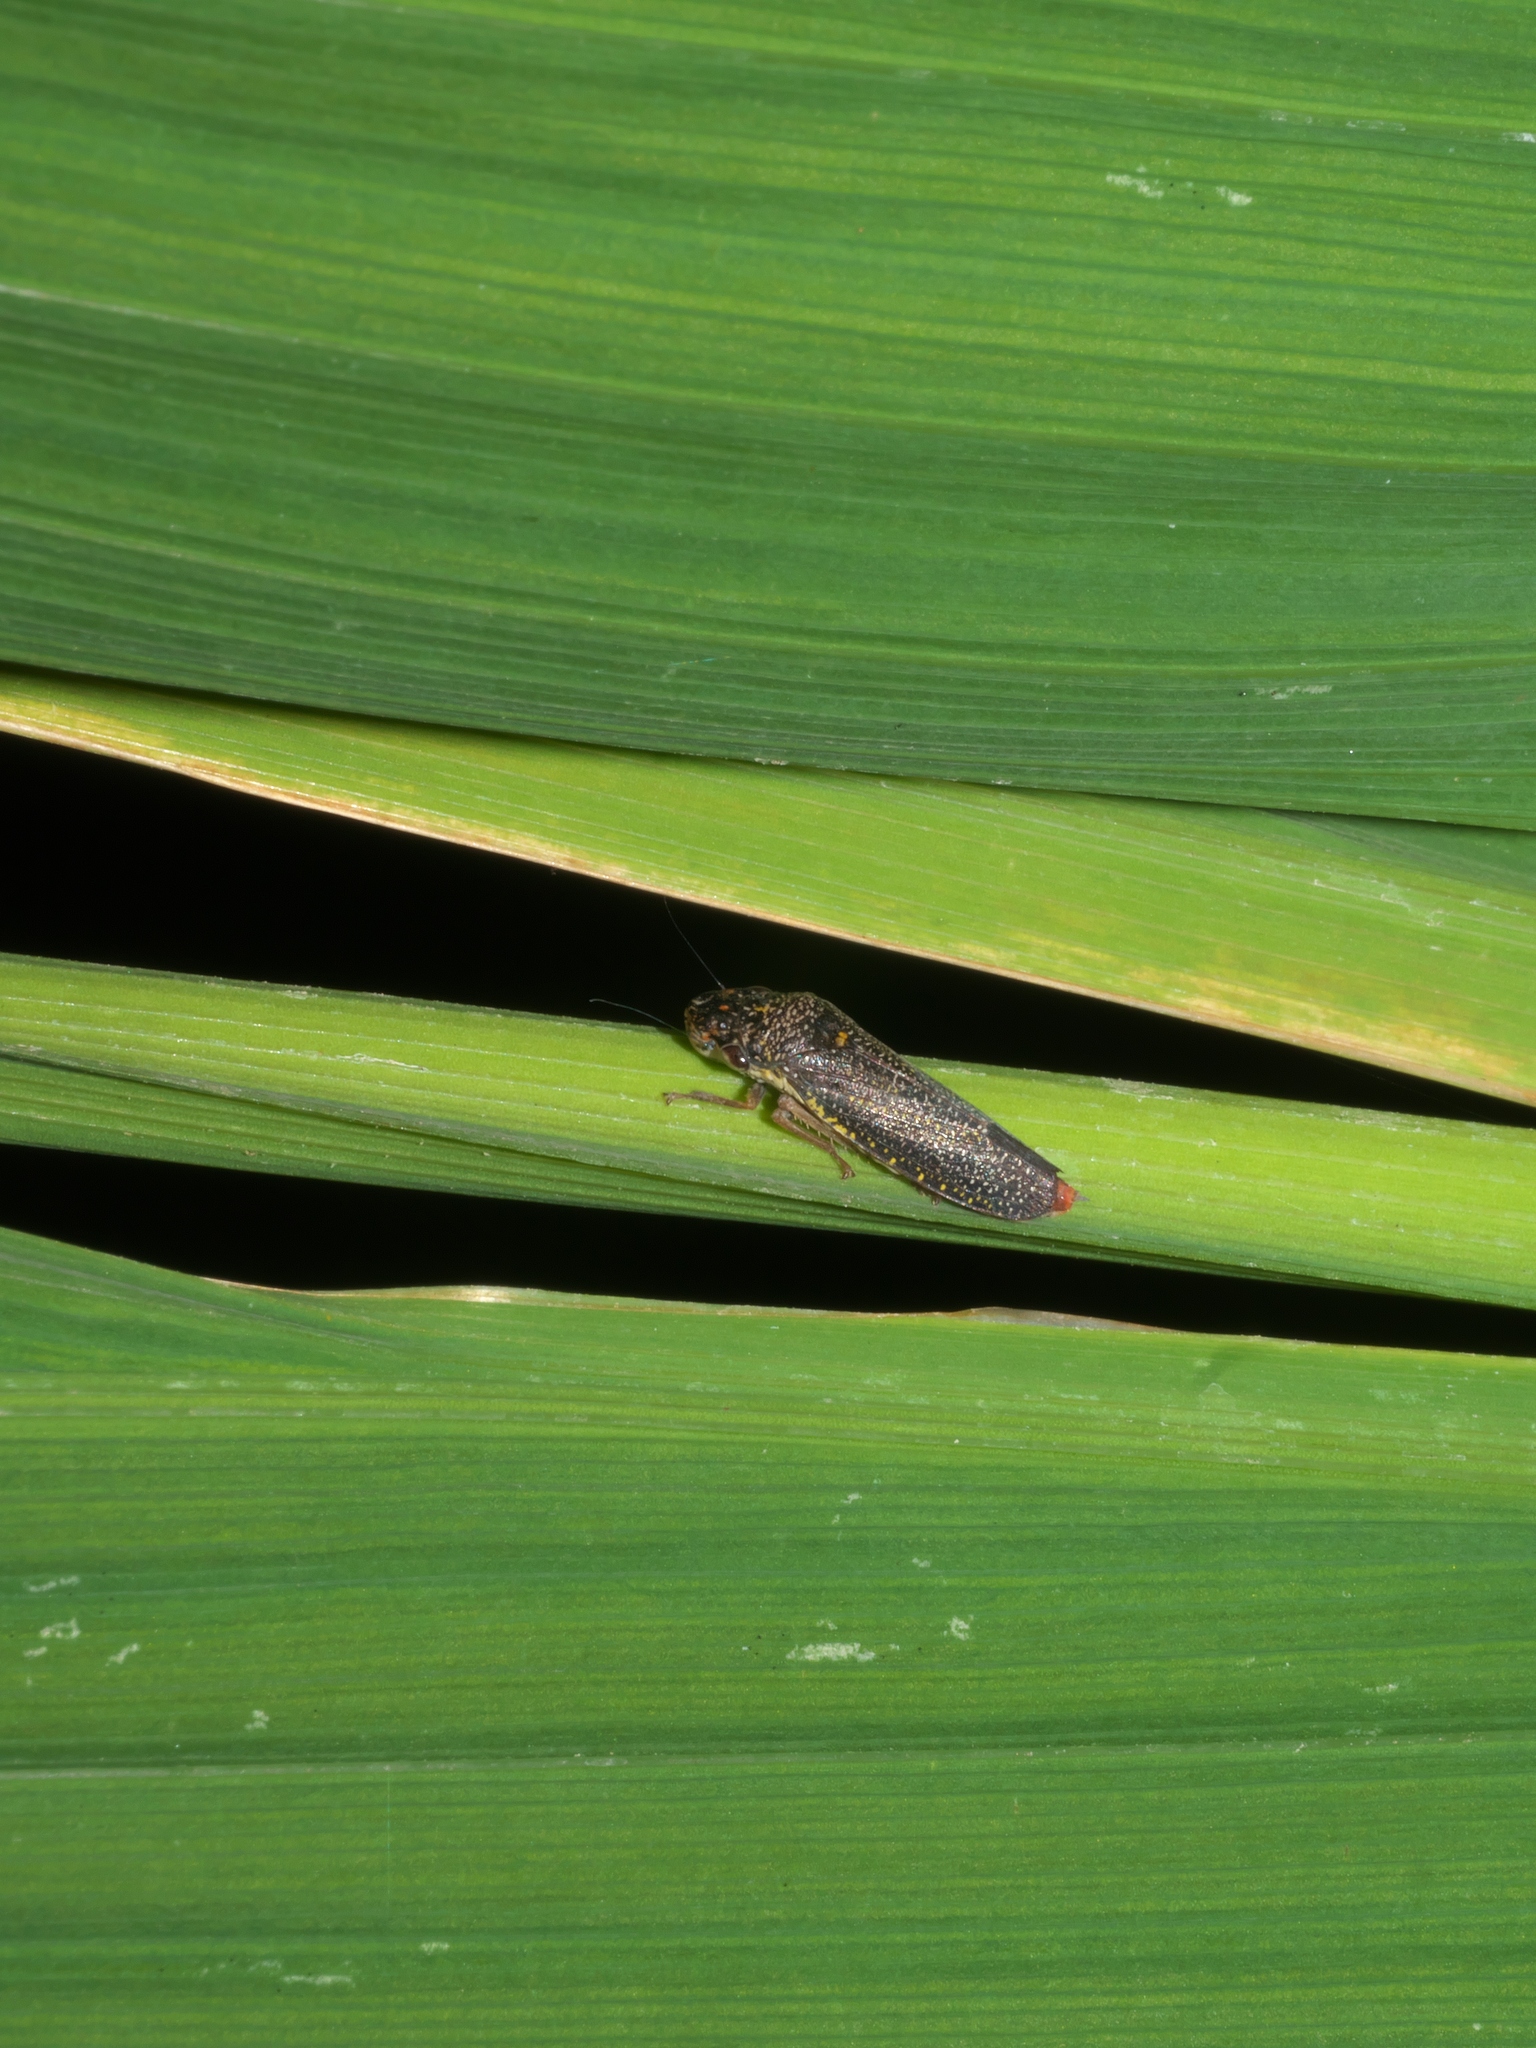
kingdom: Animalia
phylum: Arthropoda
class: Insecta
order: Hemiptera
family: Cicadellidae
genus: Paraulacizes
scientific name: Paraulacizes irrorata
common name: Speckled sharpshooter
